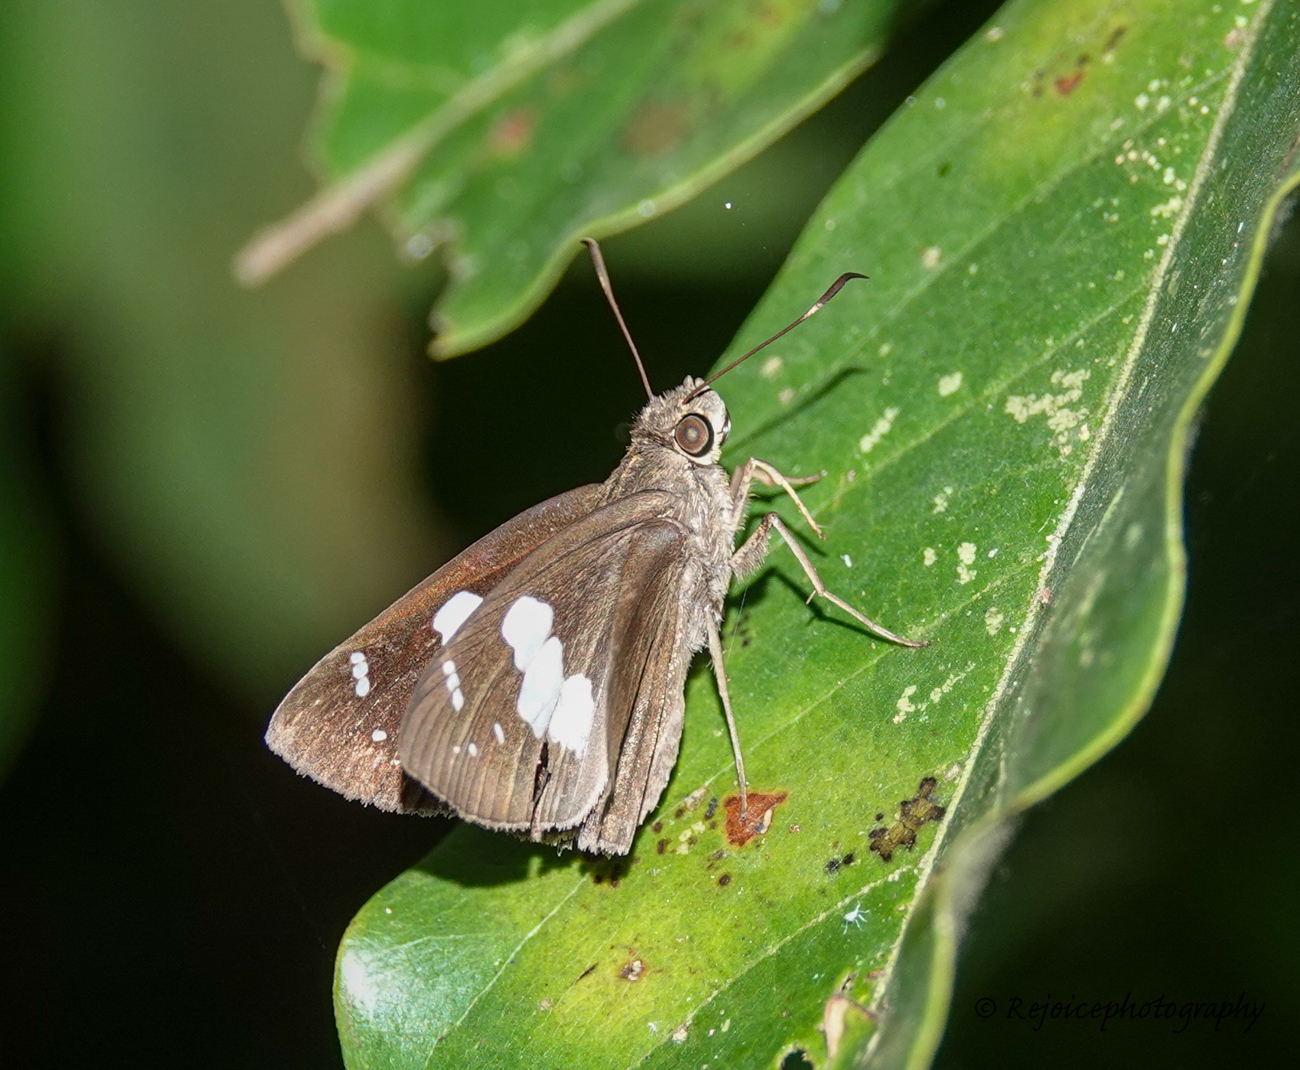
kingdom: Animalia
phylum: Arthropoda
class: Insecta
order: Lepidoptera
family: Hesperiidae
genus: Notocrypta
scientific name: Notocrypta curvifascia
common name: Restricted demon
